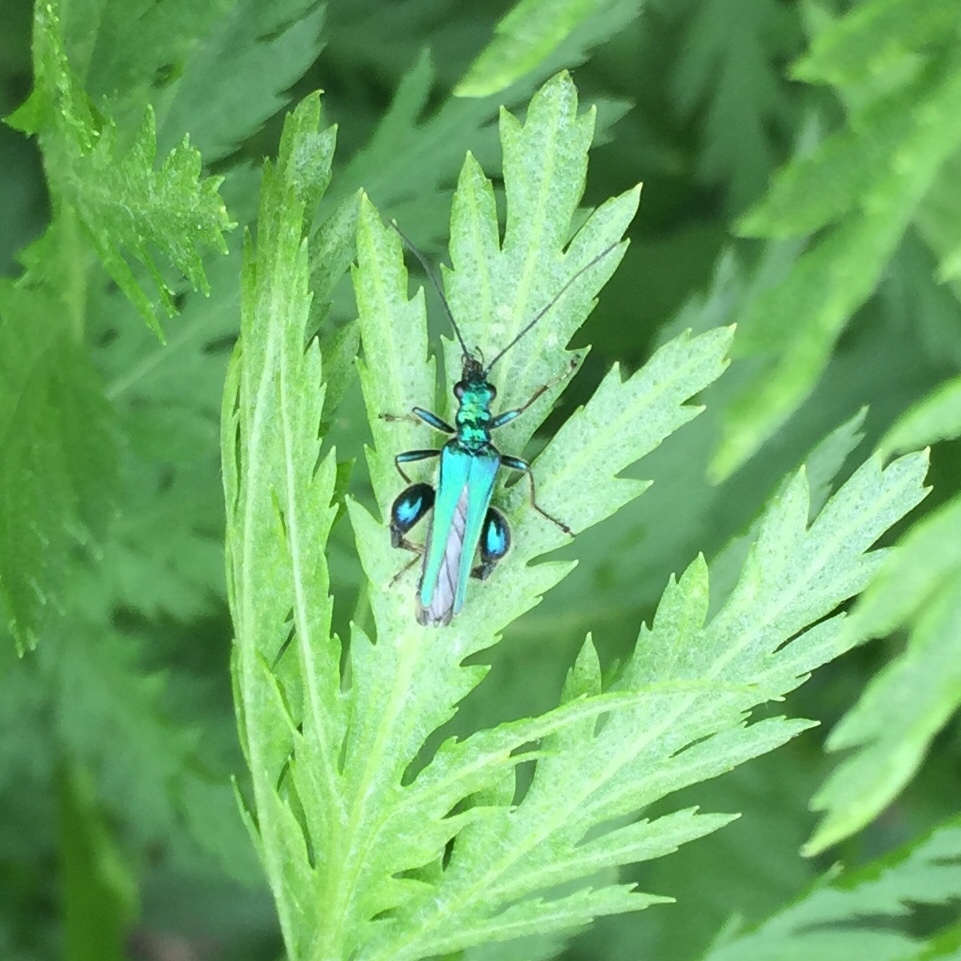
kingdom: Animalia
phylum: Arthropoda
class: Insecta
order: Coleoptera
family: Oedemeridae
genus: Oedemera
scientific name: Oedemera nobilis
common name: Swollen-thighed beetle
